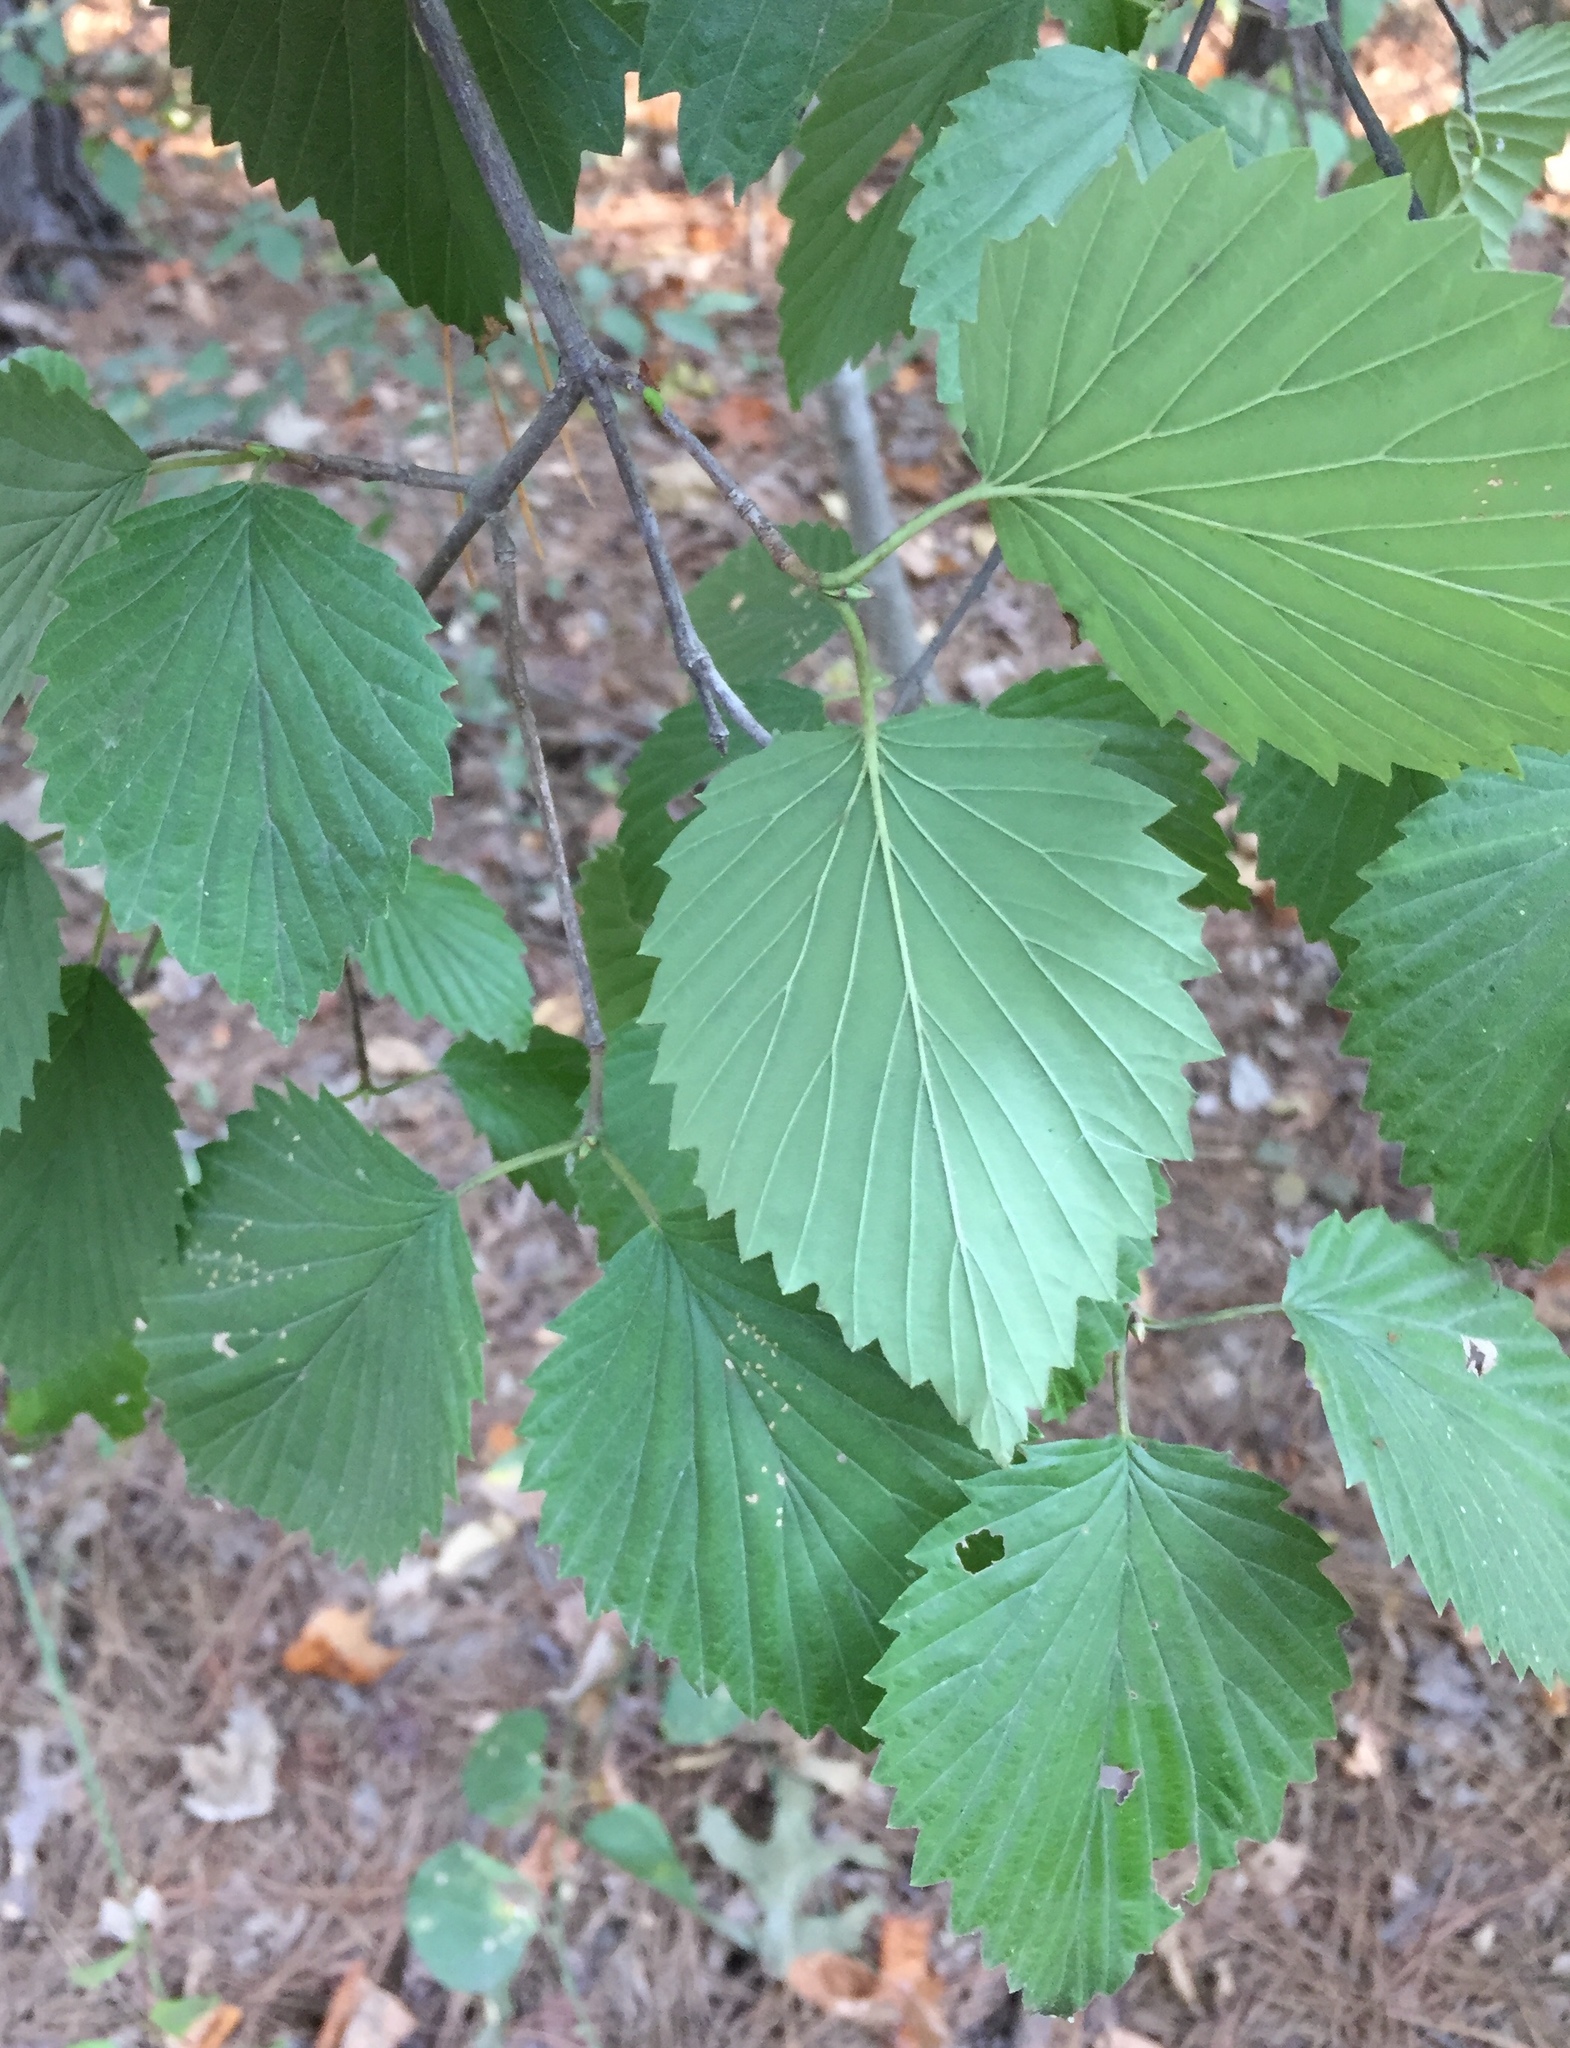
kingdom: Plantae
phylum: Tracheophyta
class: Magnoliopsida
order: Dipsacales
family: Viburnaceae
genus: Viburnum
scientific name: Viburnum dentatum
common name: Arrow-wood
